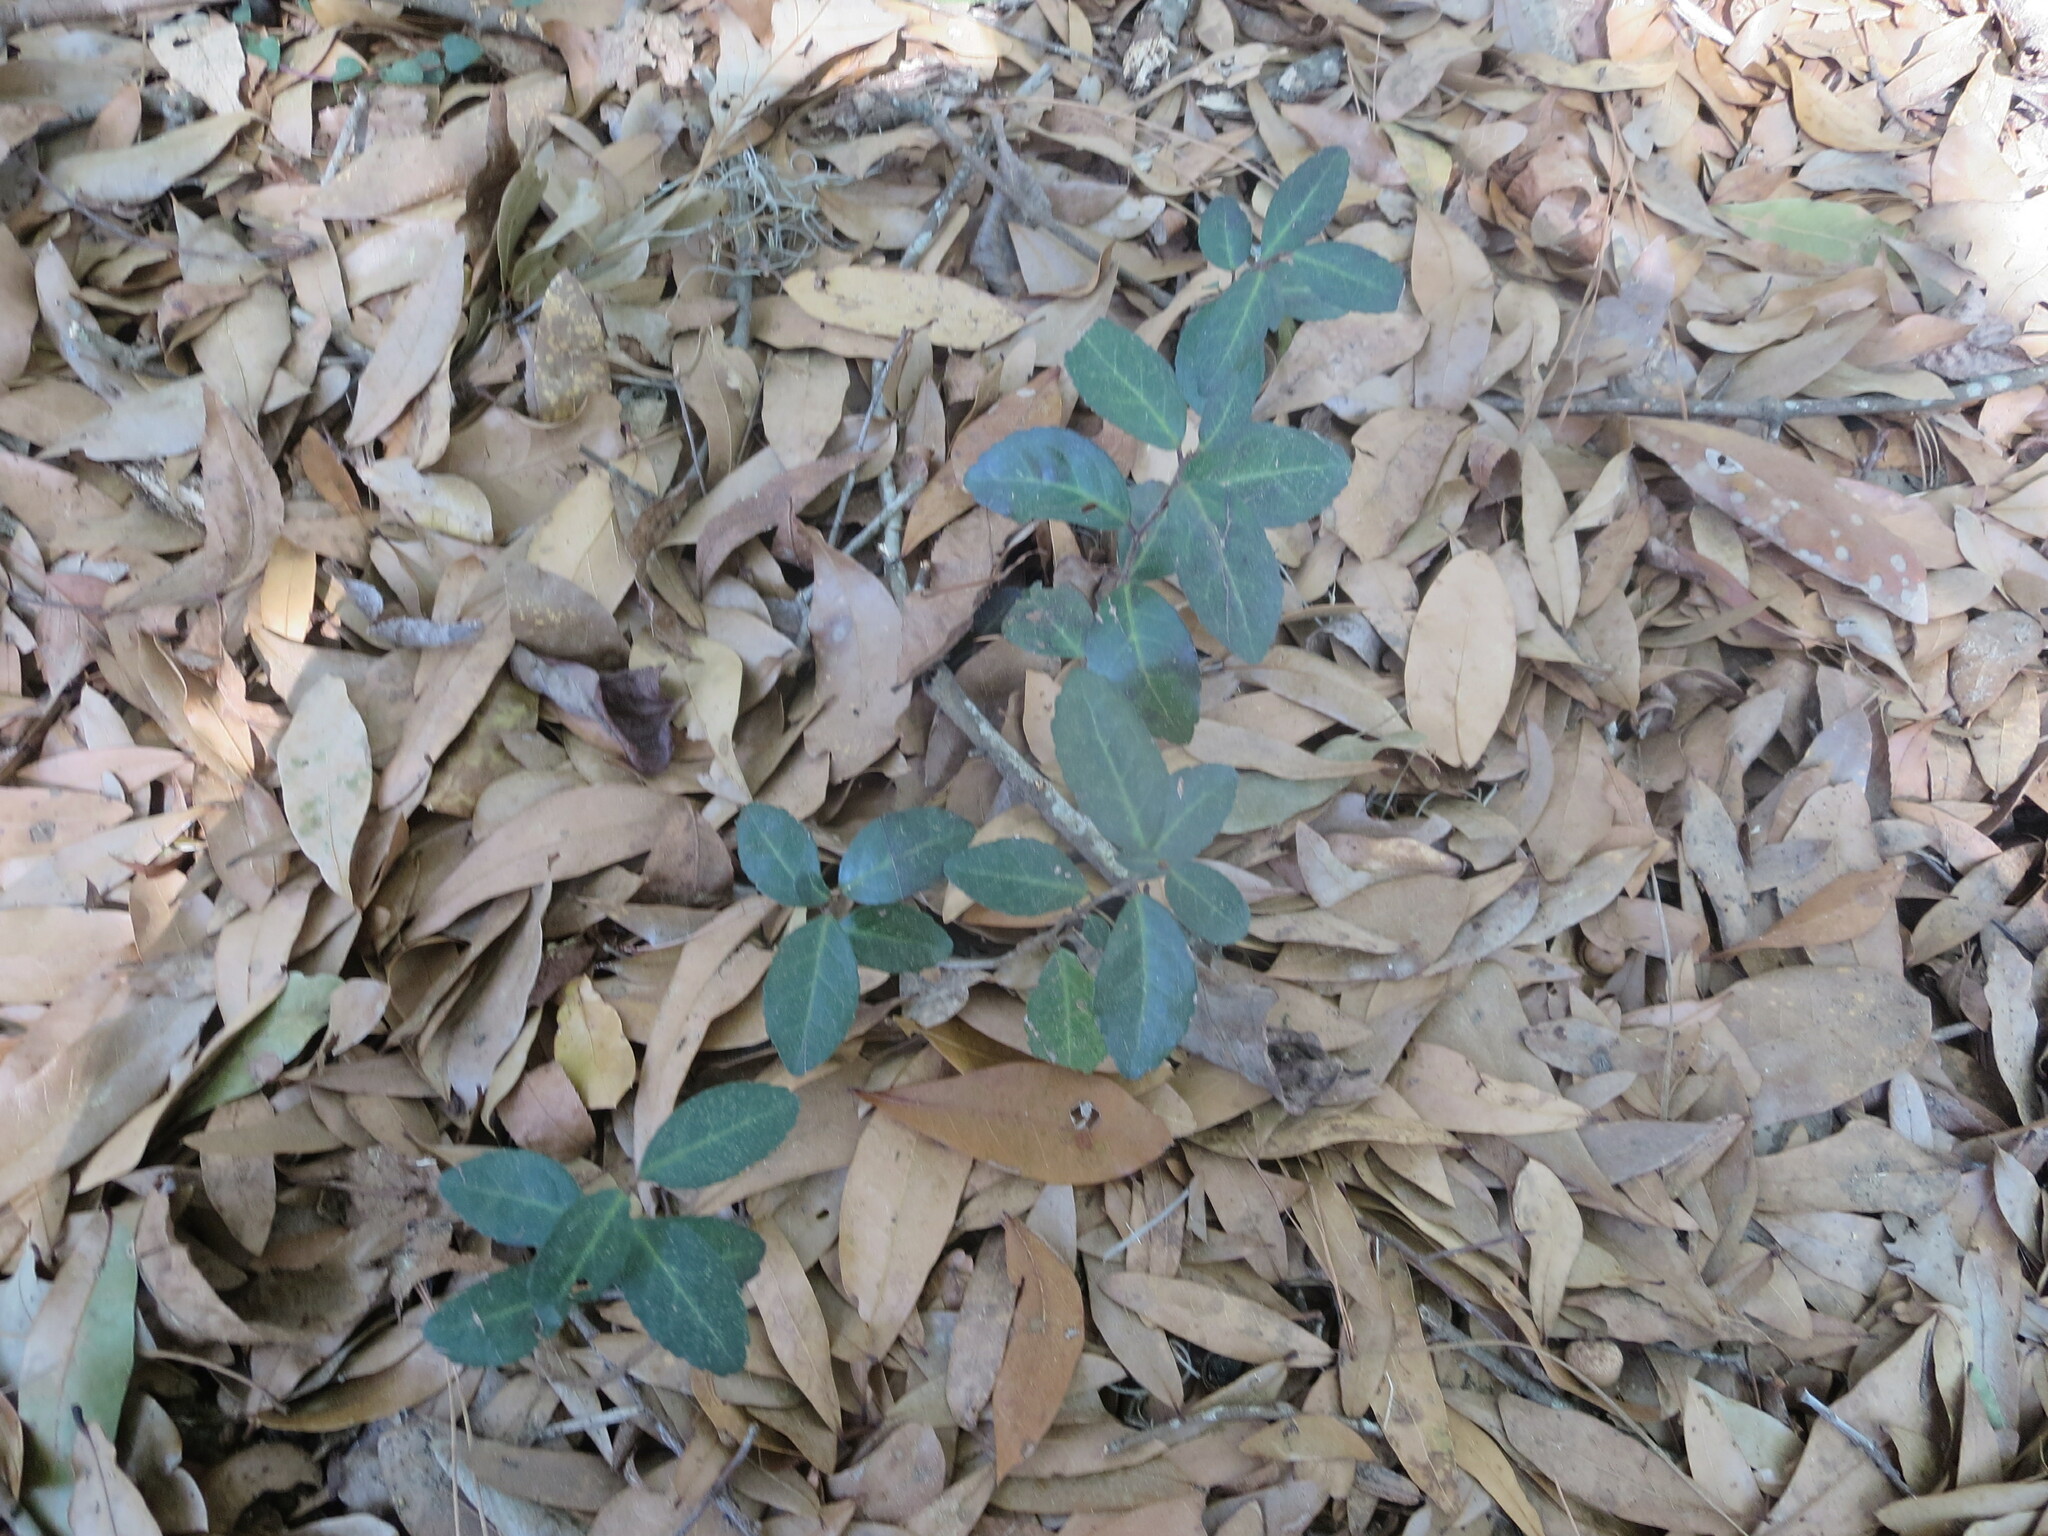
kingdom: Plantae
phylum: Tracheophyta
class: Magnoliopsida
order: Aquifoliales
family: Aquifoliaceae
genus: Ilex
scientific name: Ilex vomitoria
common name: Yaupon holly
